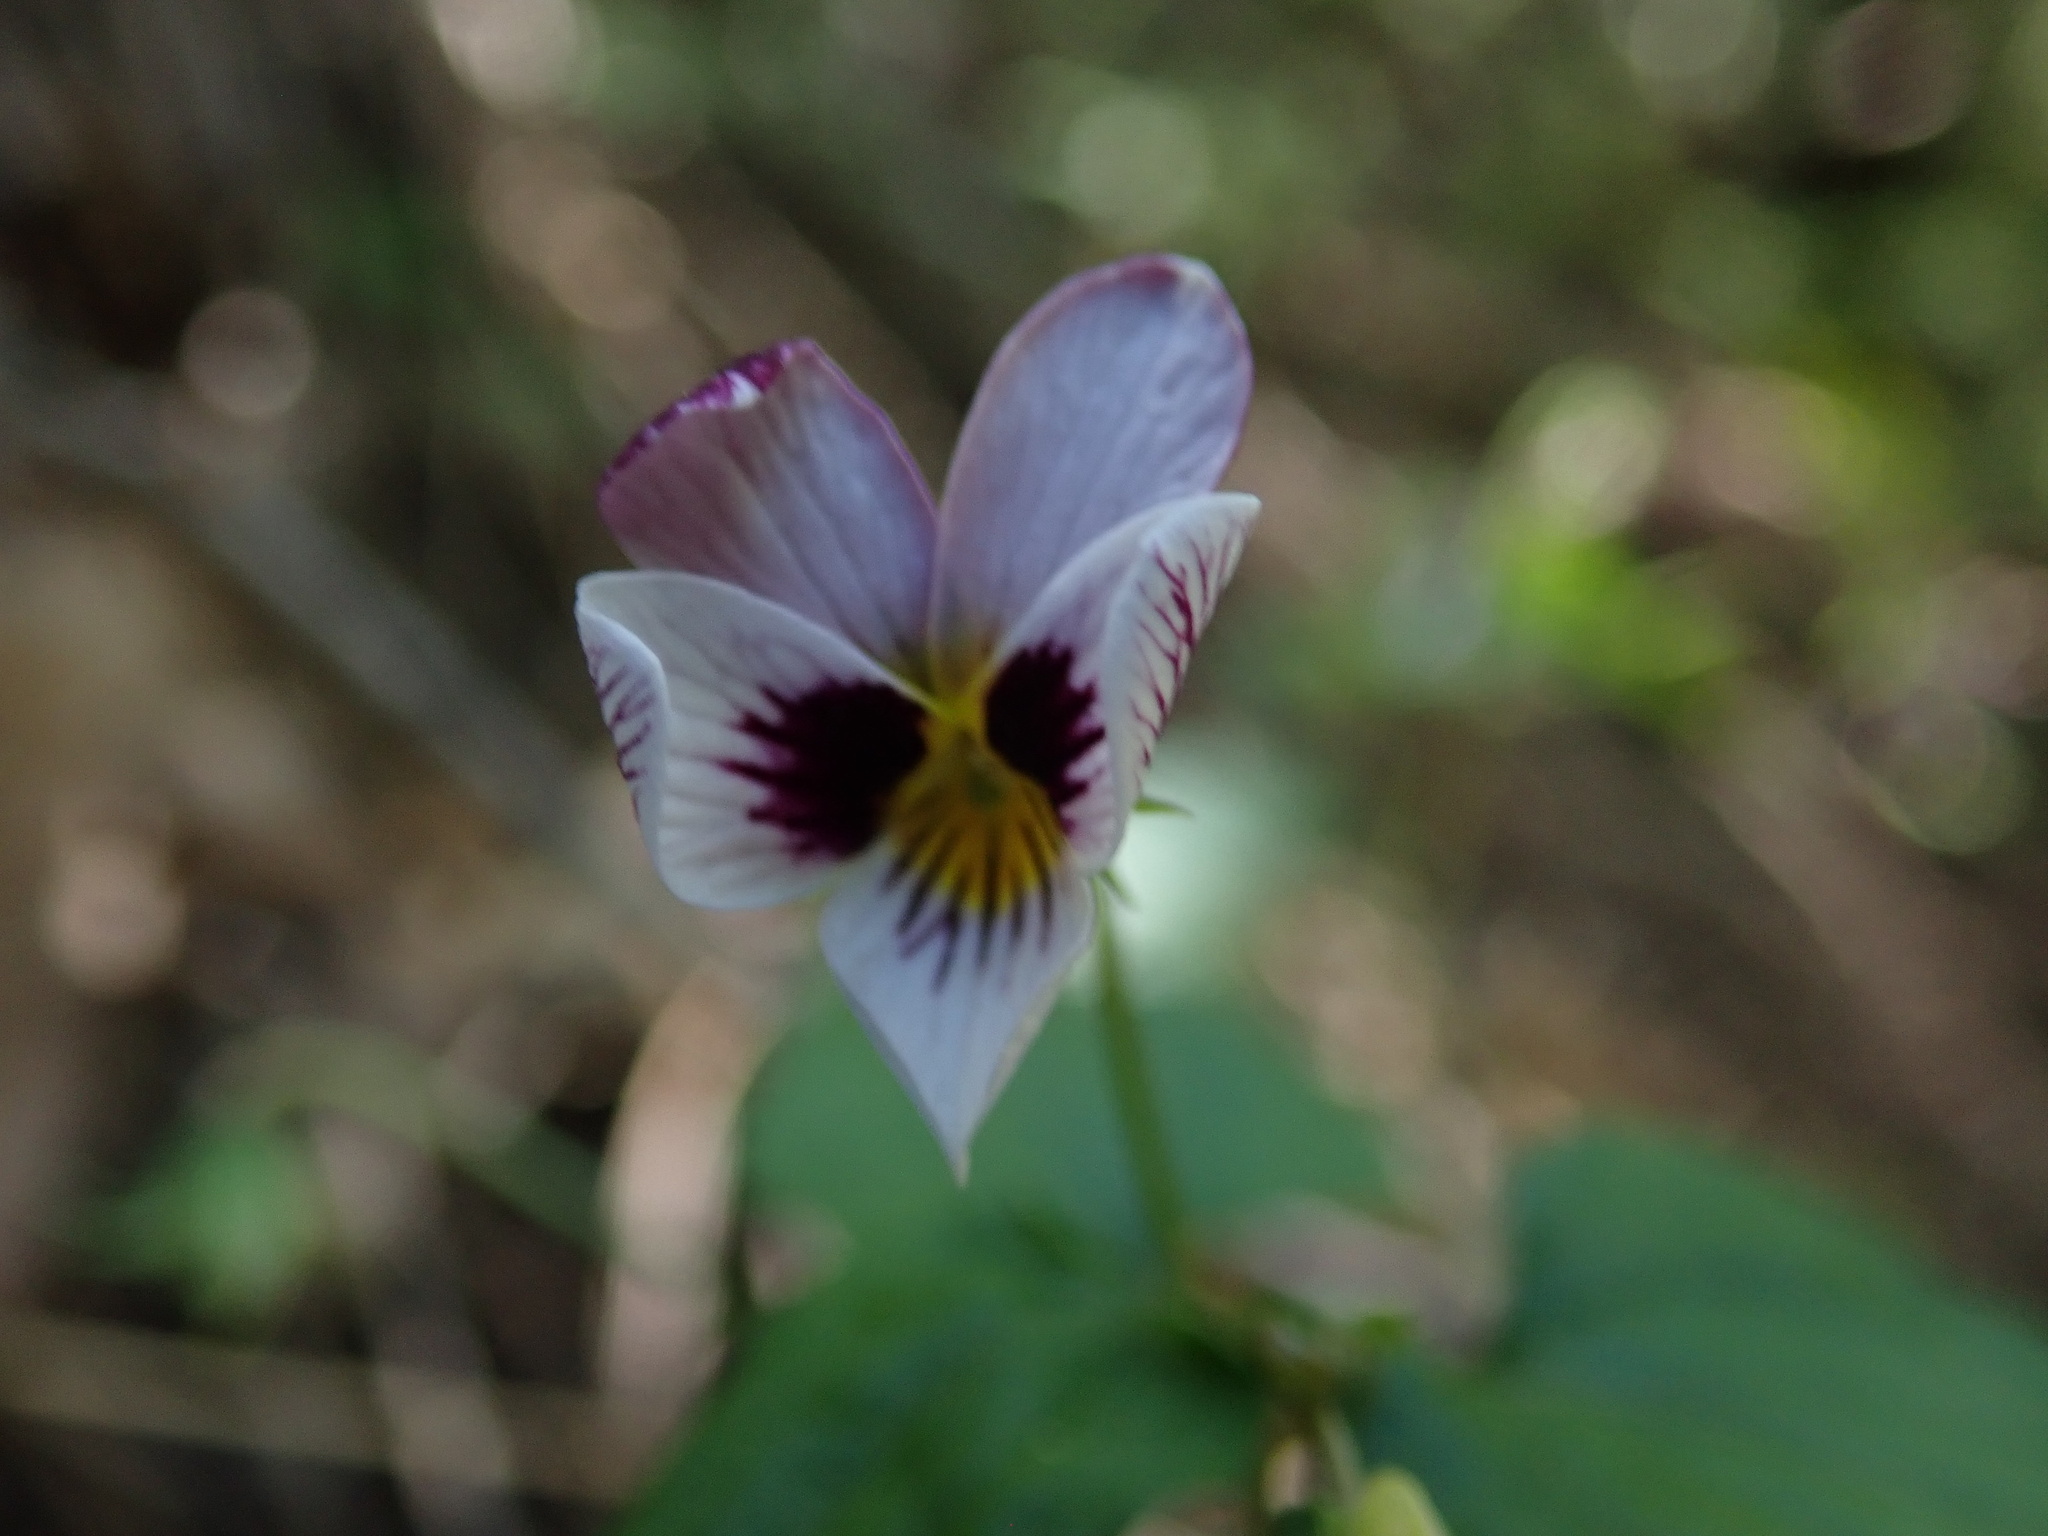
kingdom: Plantae
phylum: Tracheophyta
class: Magnoliopsida
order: Malpighiales
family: Violaceae
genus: Viola
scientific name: Viola ocellata
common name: Western heart's ease
